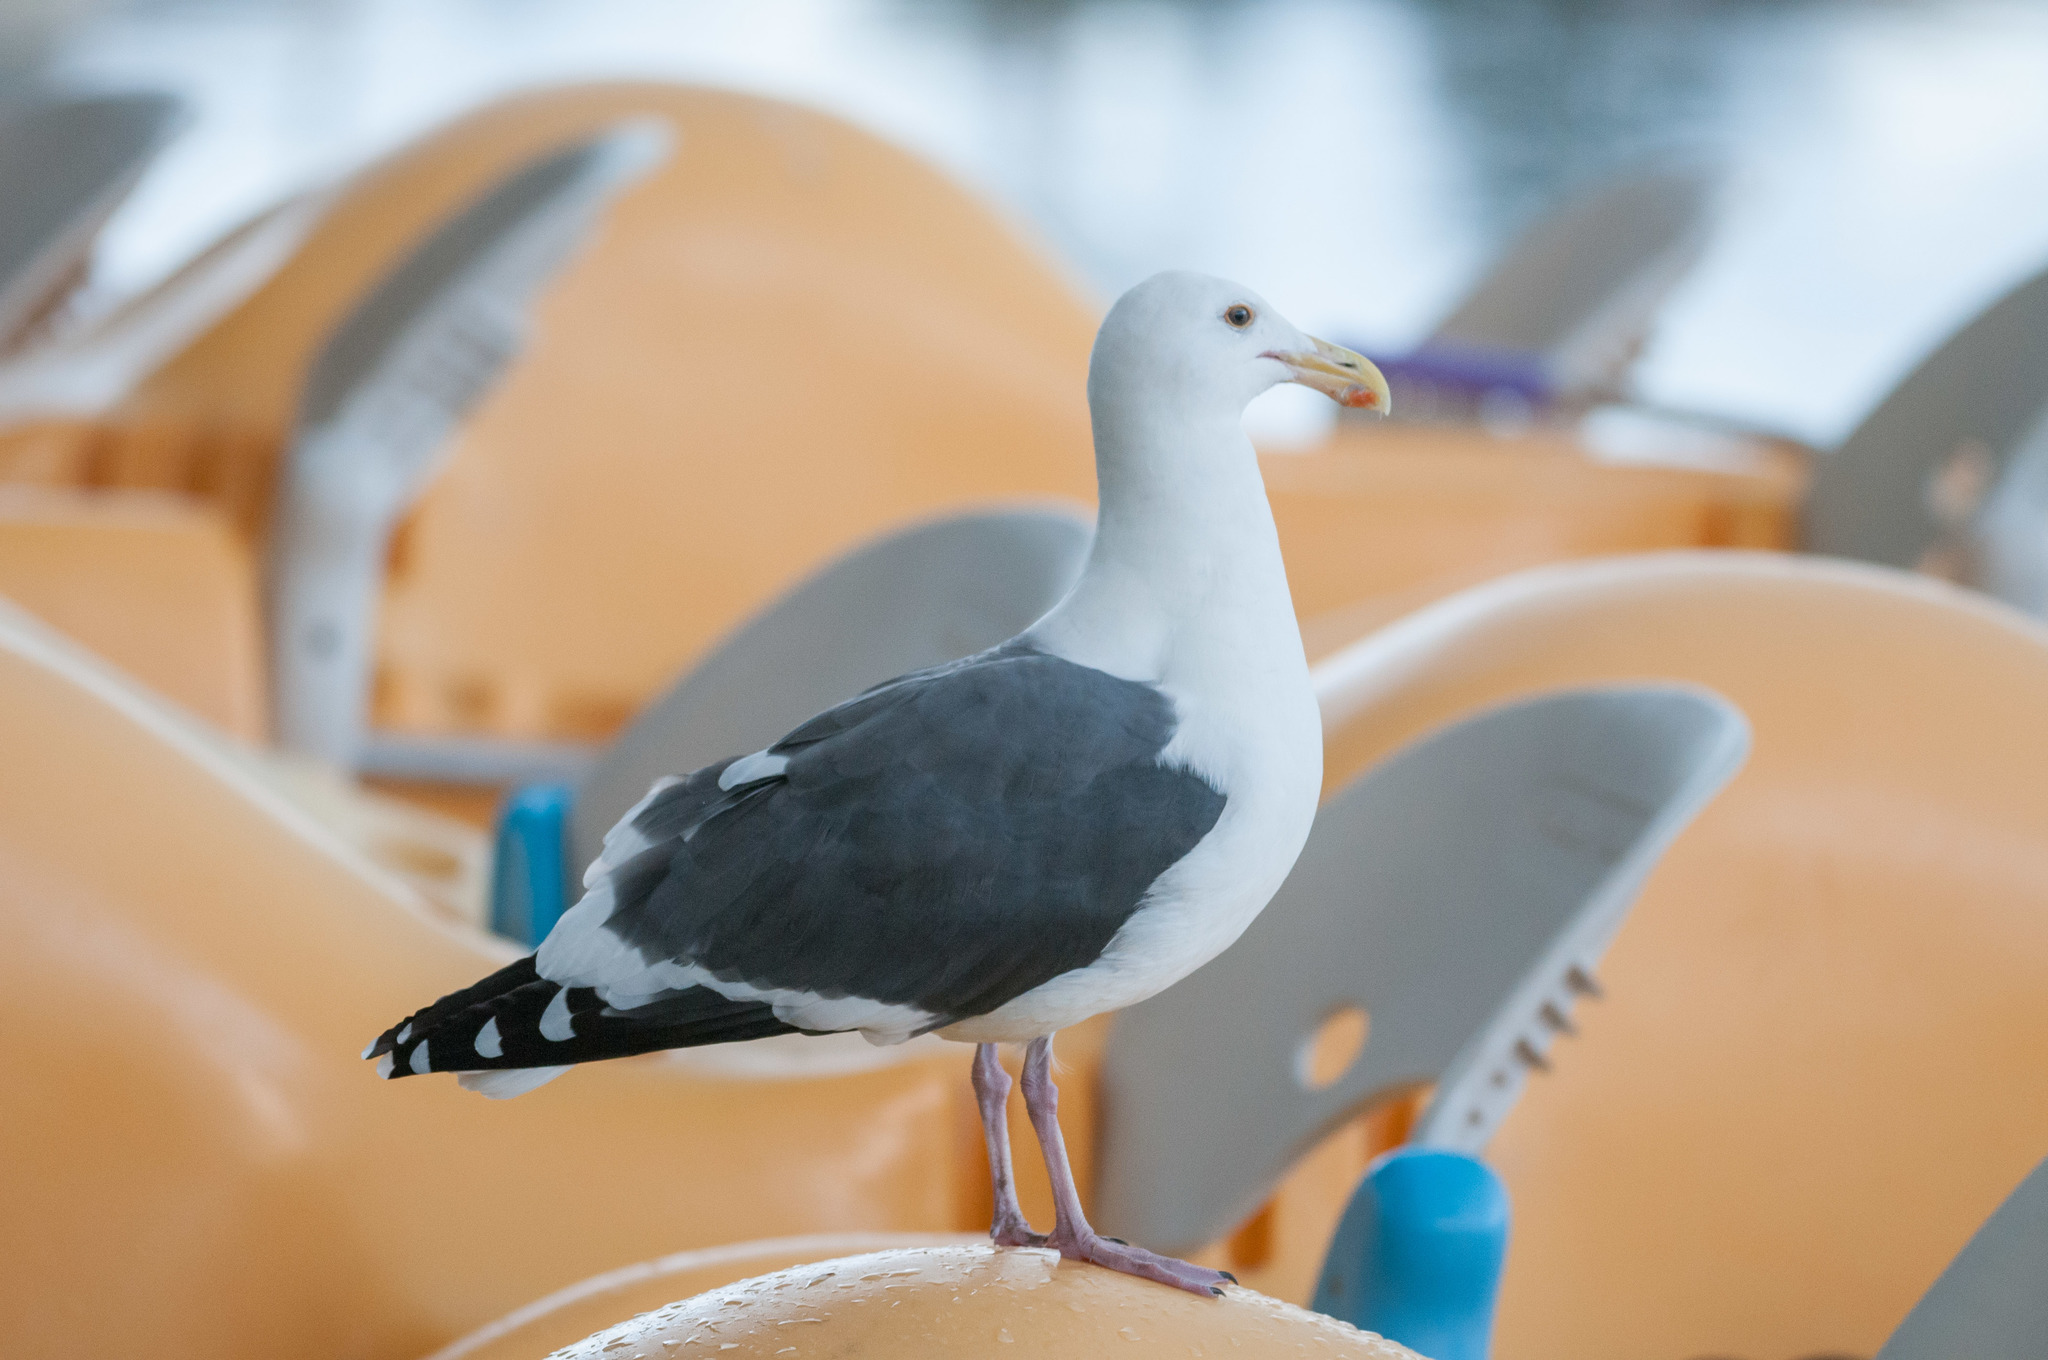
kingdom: Animalia
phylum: Chordata
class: Aves
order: Charadriiformes
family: Laridae
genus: Larus
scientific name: Larus occidentalis
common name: Western gull
